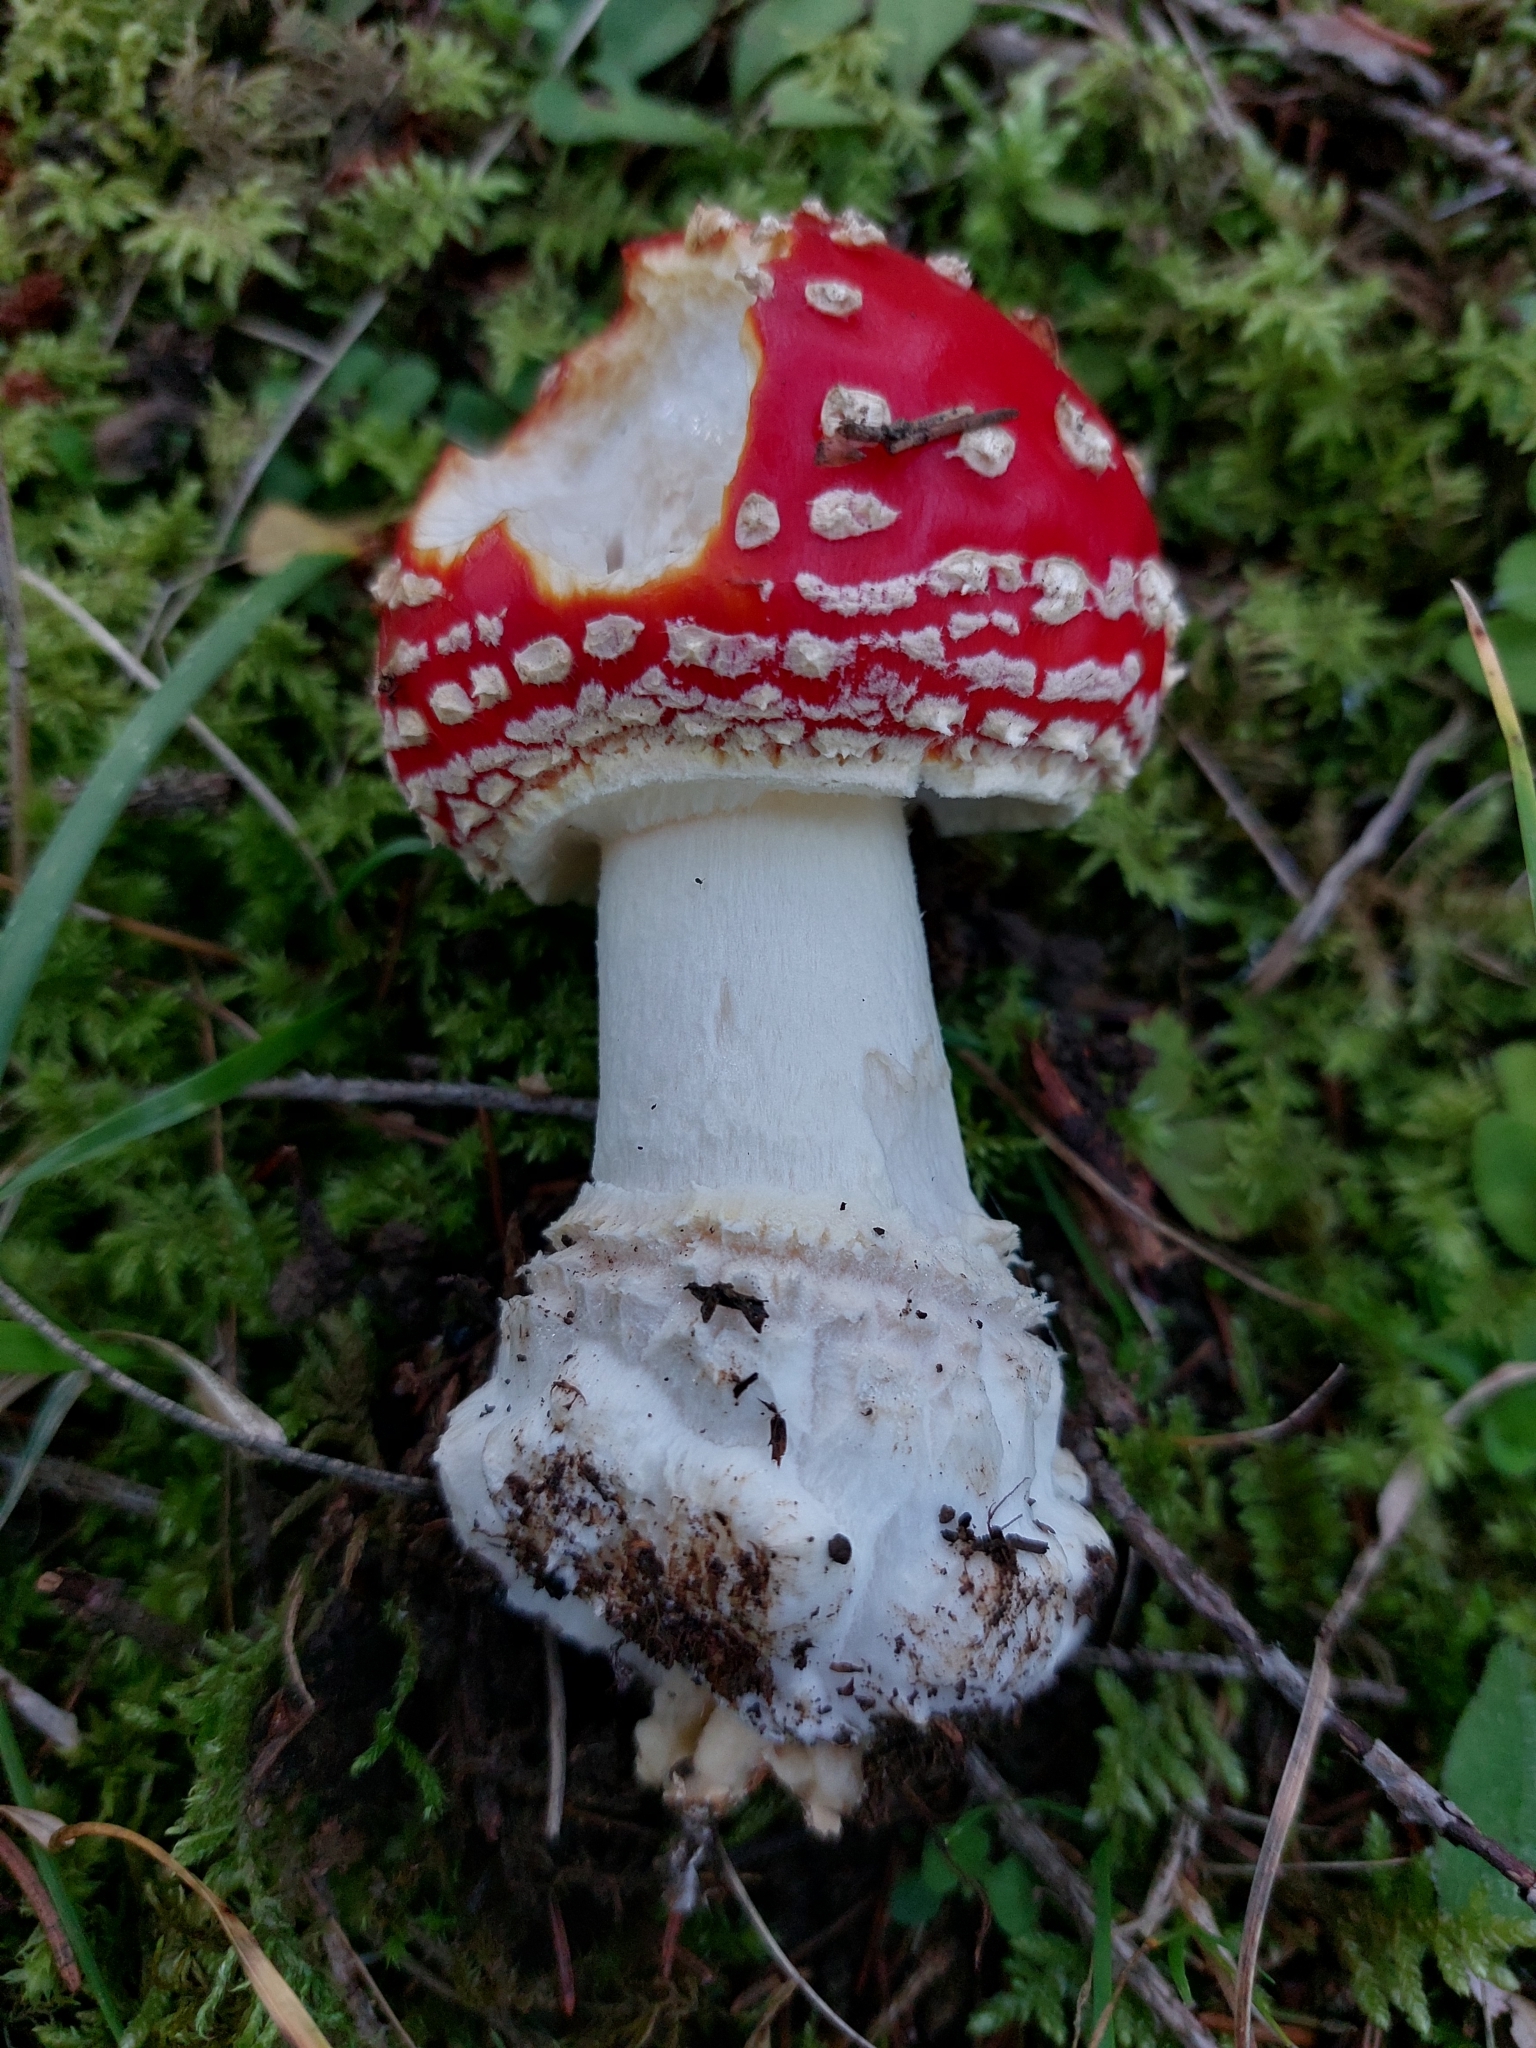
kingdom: Fungi
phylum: Basidiomycota
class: Agaricomycetes
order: Agaricales
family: Amanitaceae
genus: Amanita
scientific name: Amanita muscaria
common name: Fly agaric
